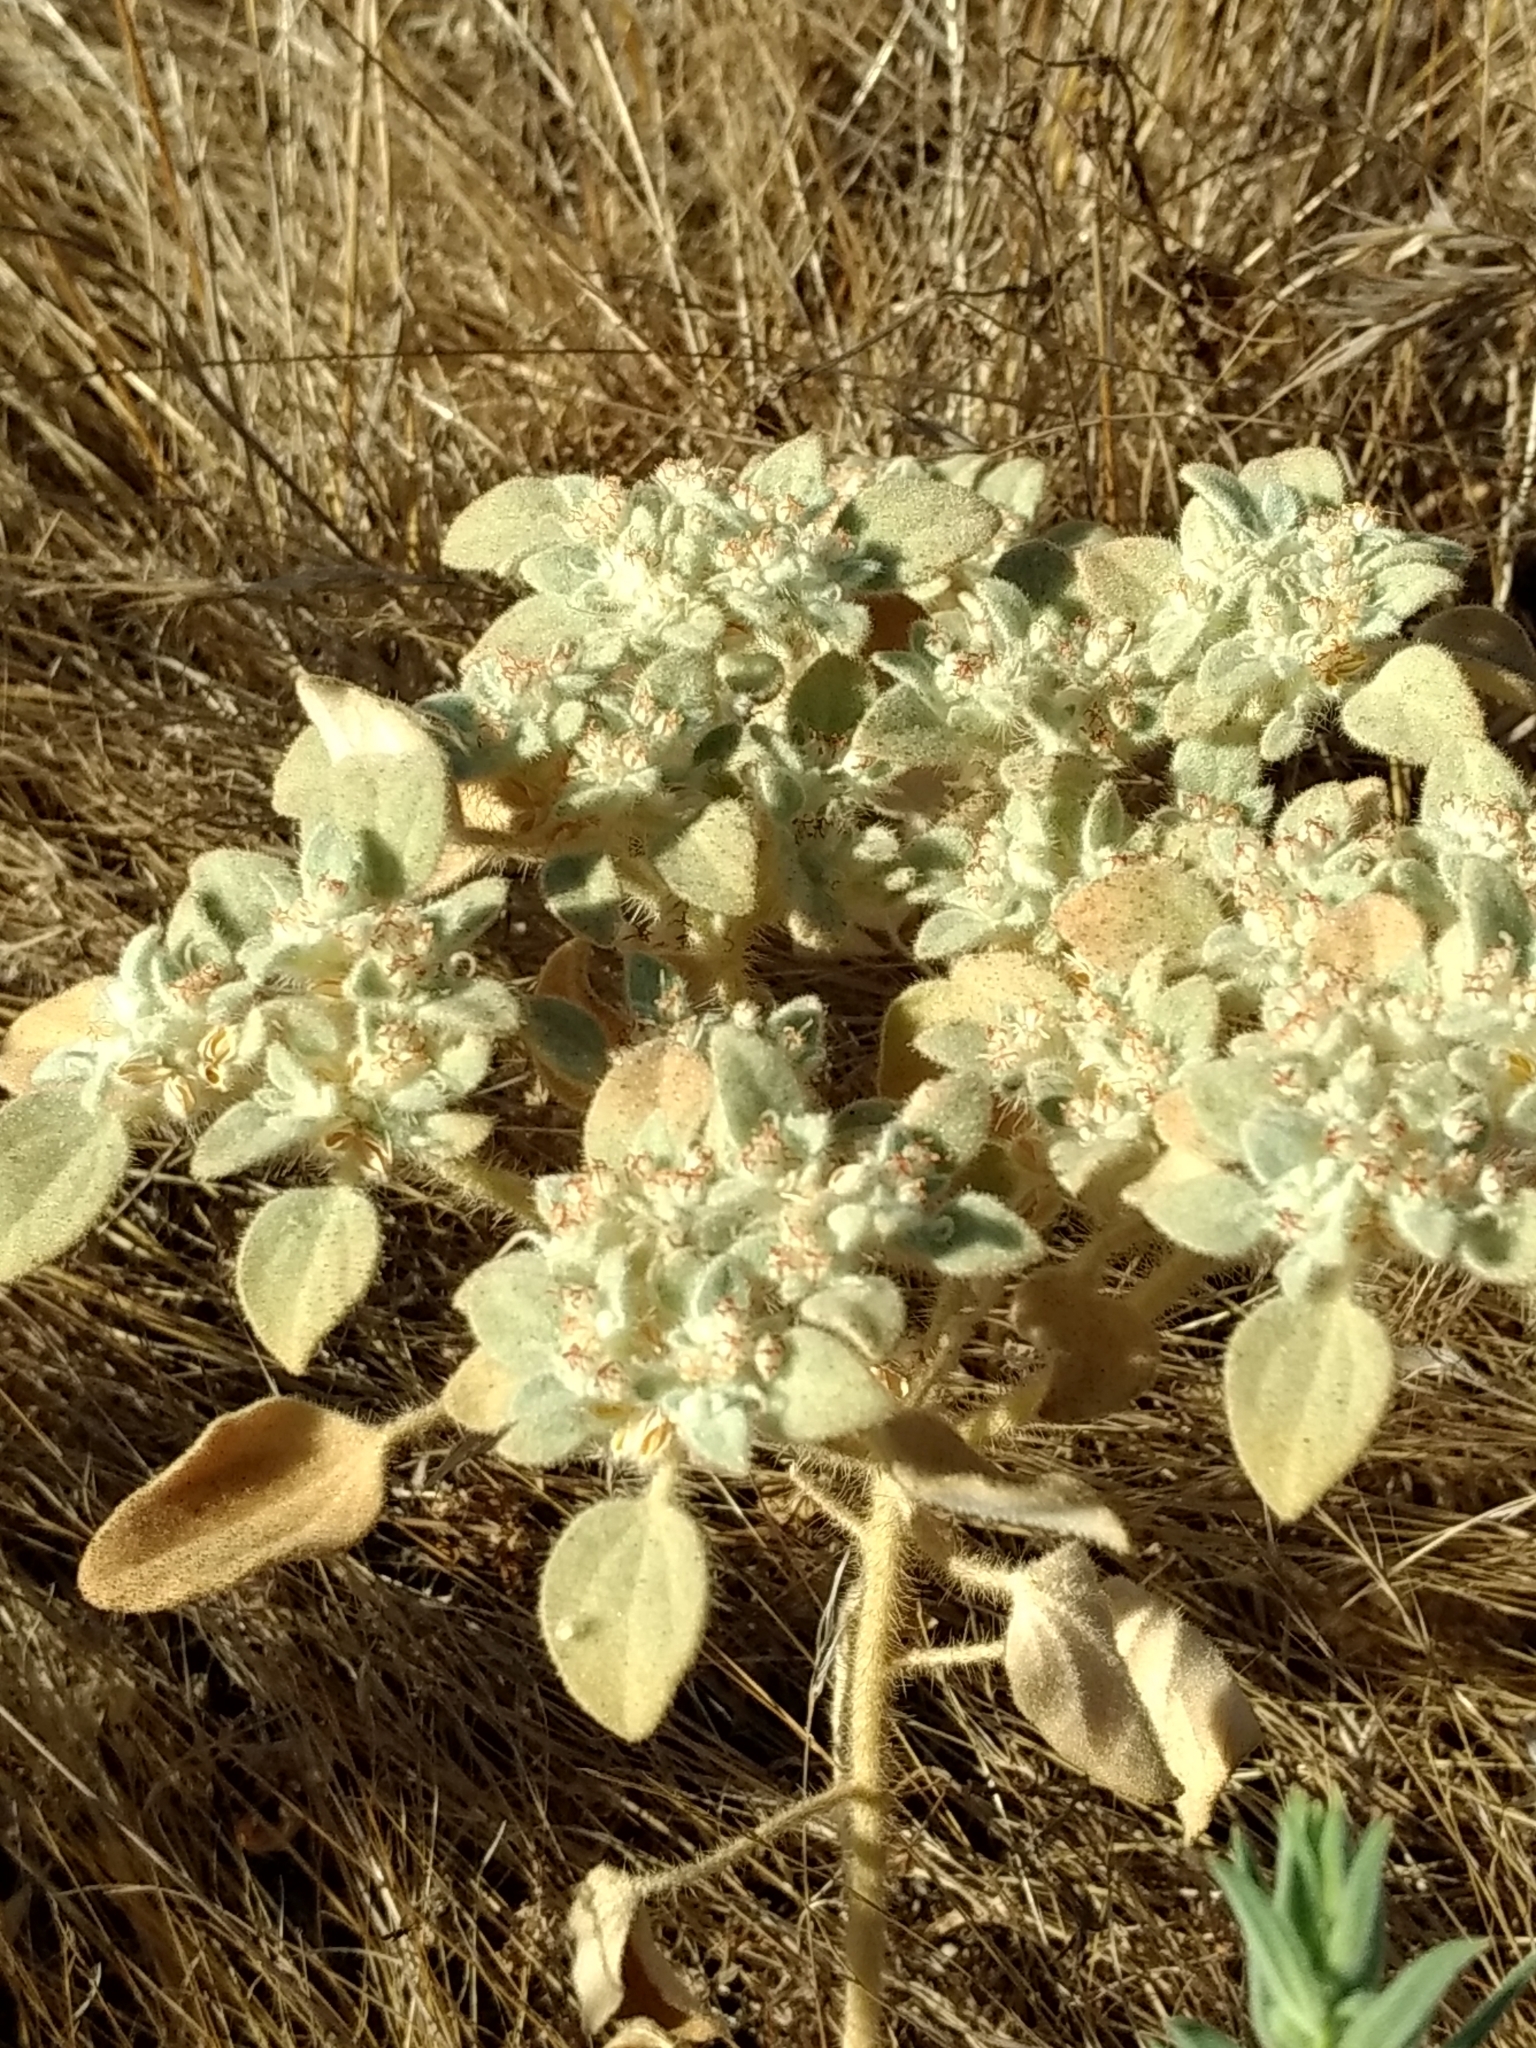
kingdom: Plantae
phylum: Tracheophyta
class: Magnoliopsida
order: Malpighiales
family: Euphorbiaceae
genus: Croton
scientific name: Croton setiger
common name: Dove weed
